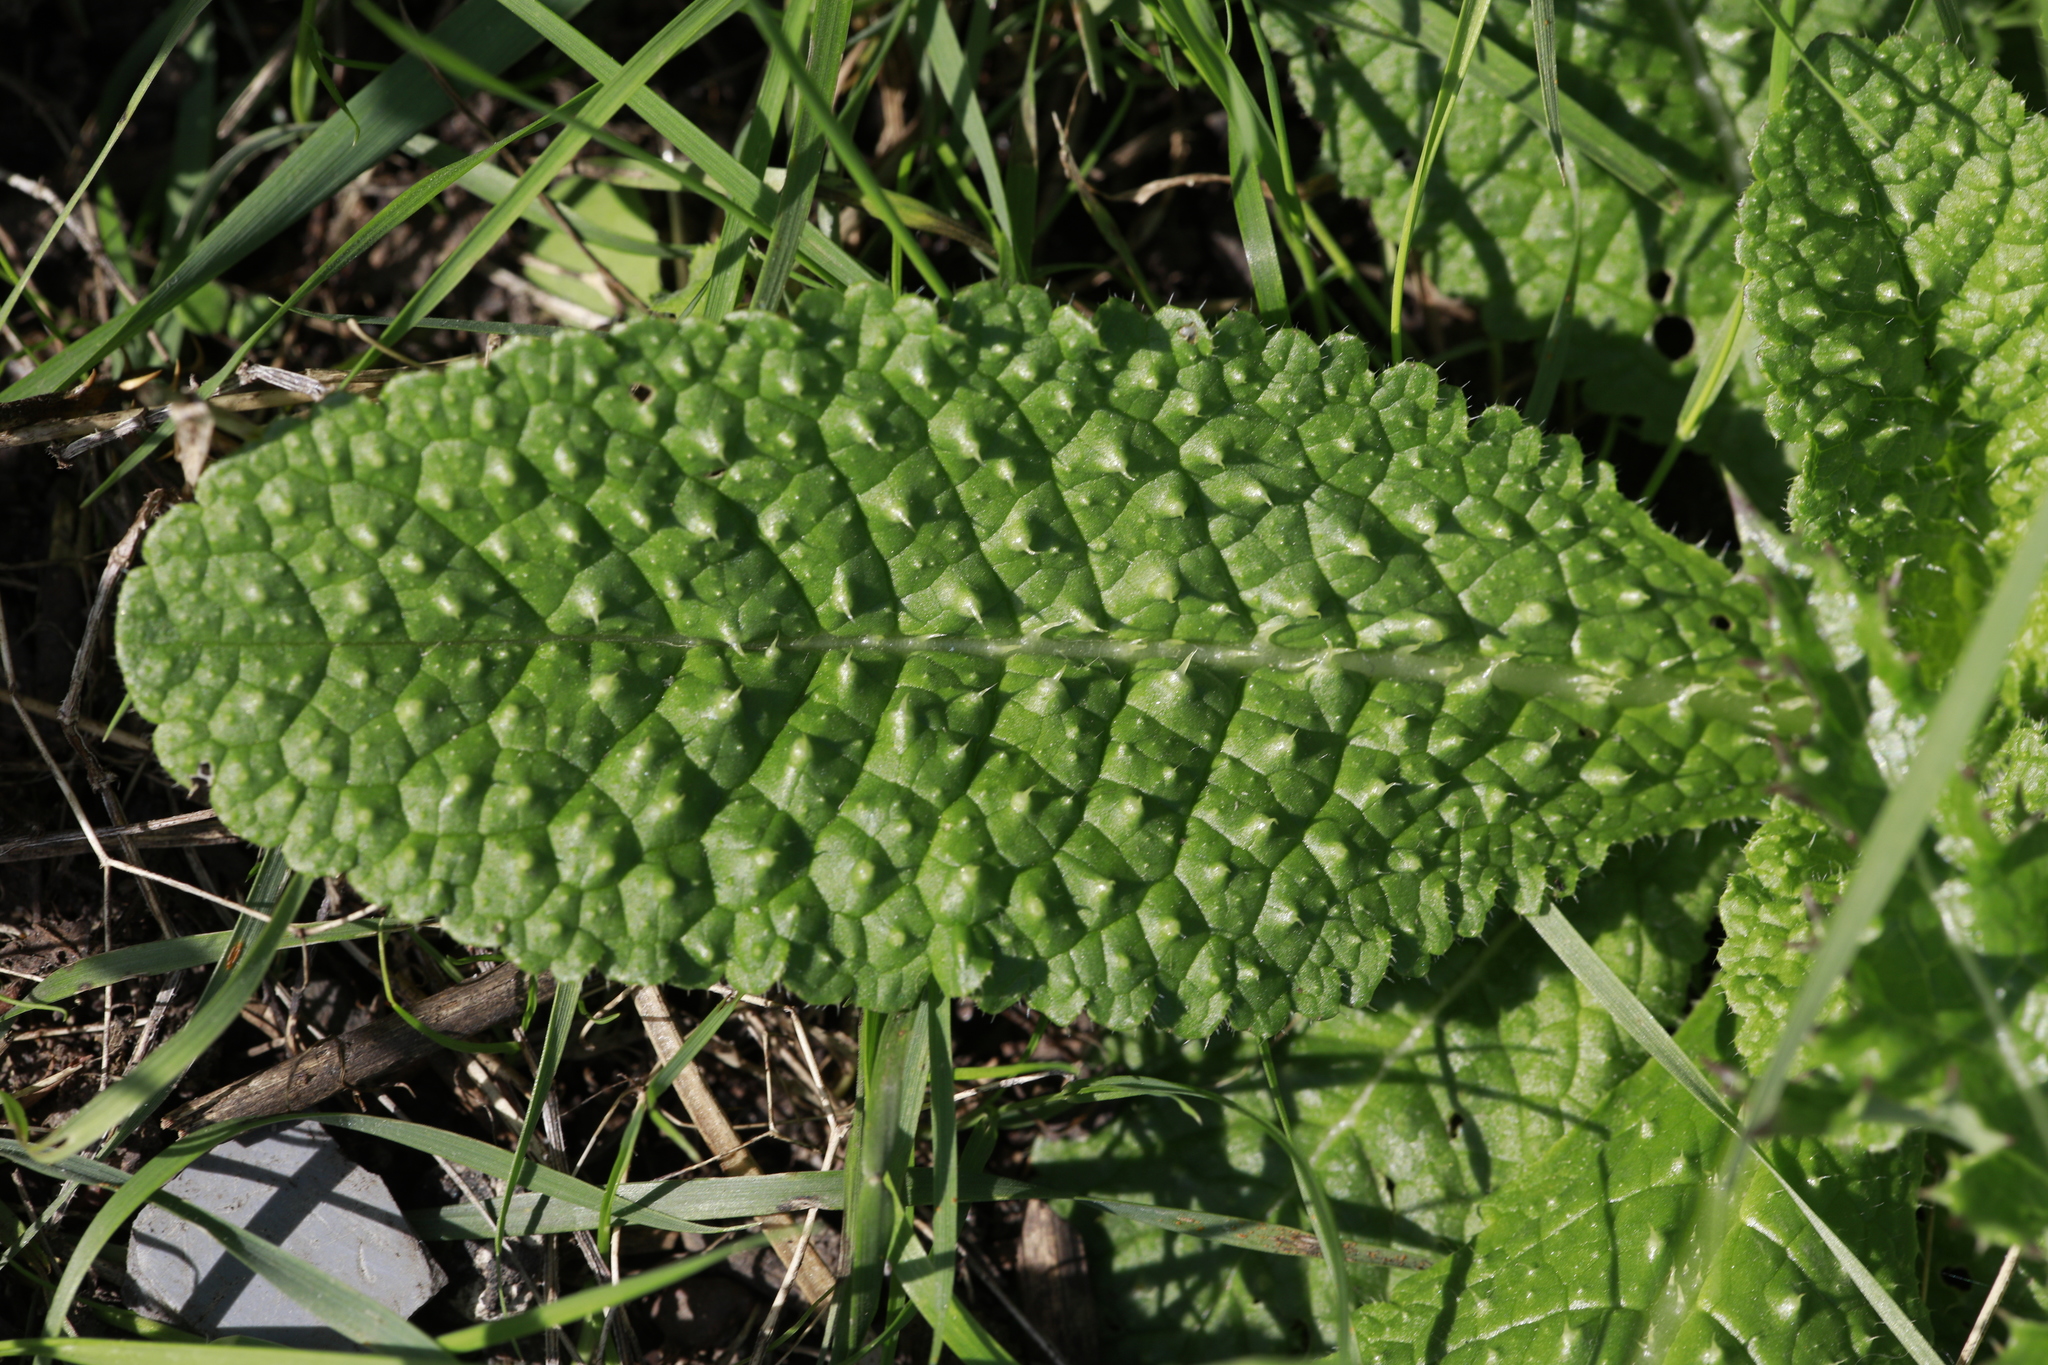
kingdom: Plantae
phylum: Tracheophyta
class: Magnoliopsida
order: Asterales
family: Asteraceae
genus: Helminthotheca
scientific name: Helminthotheca echioides
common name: Ox-tongue
